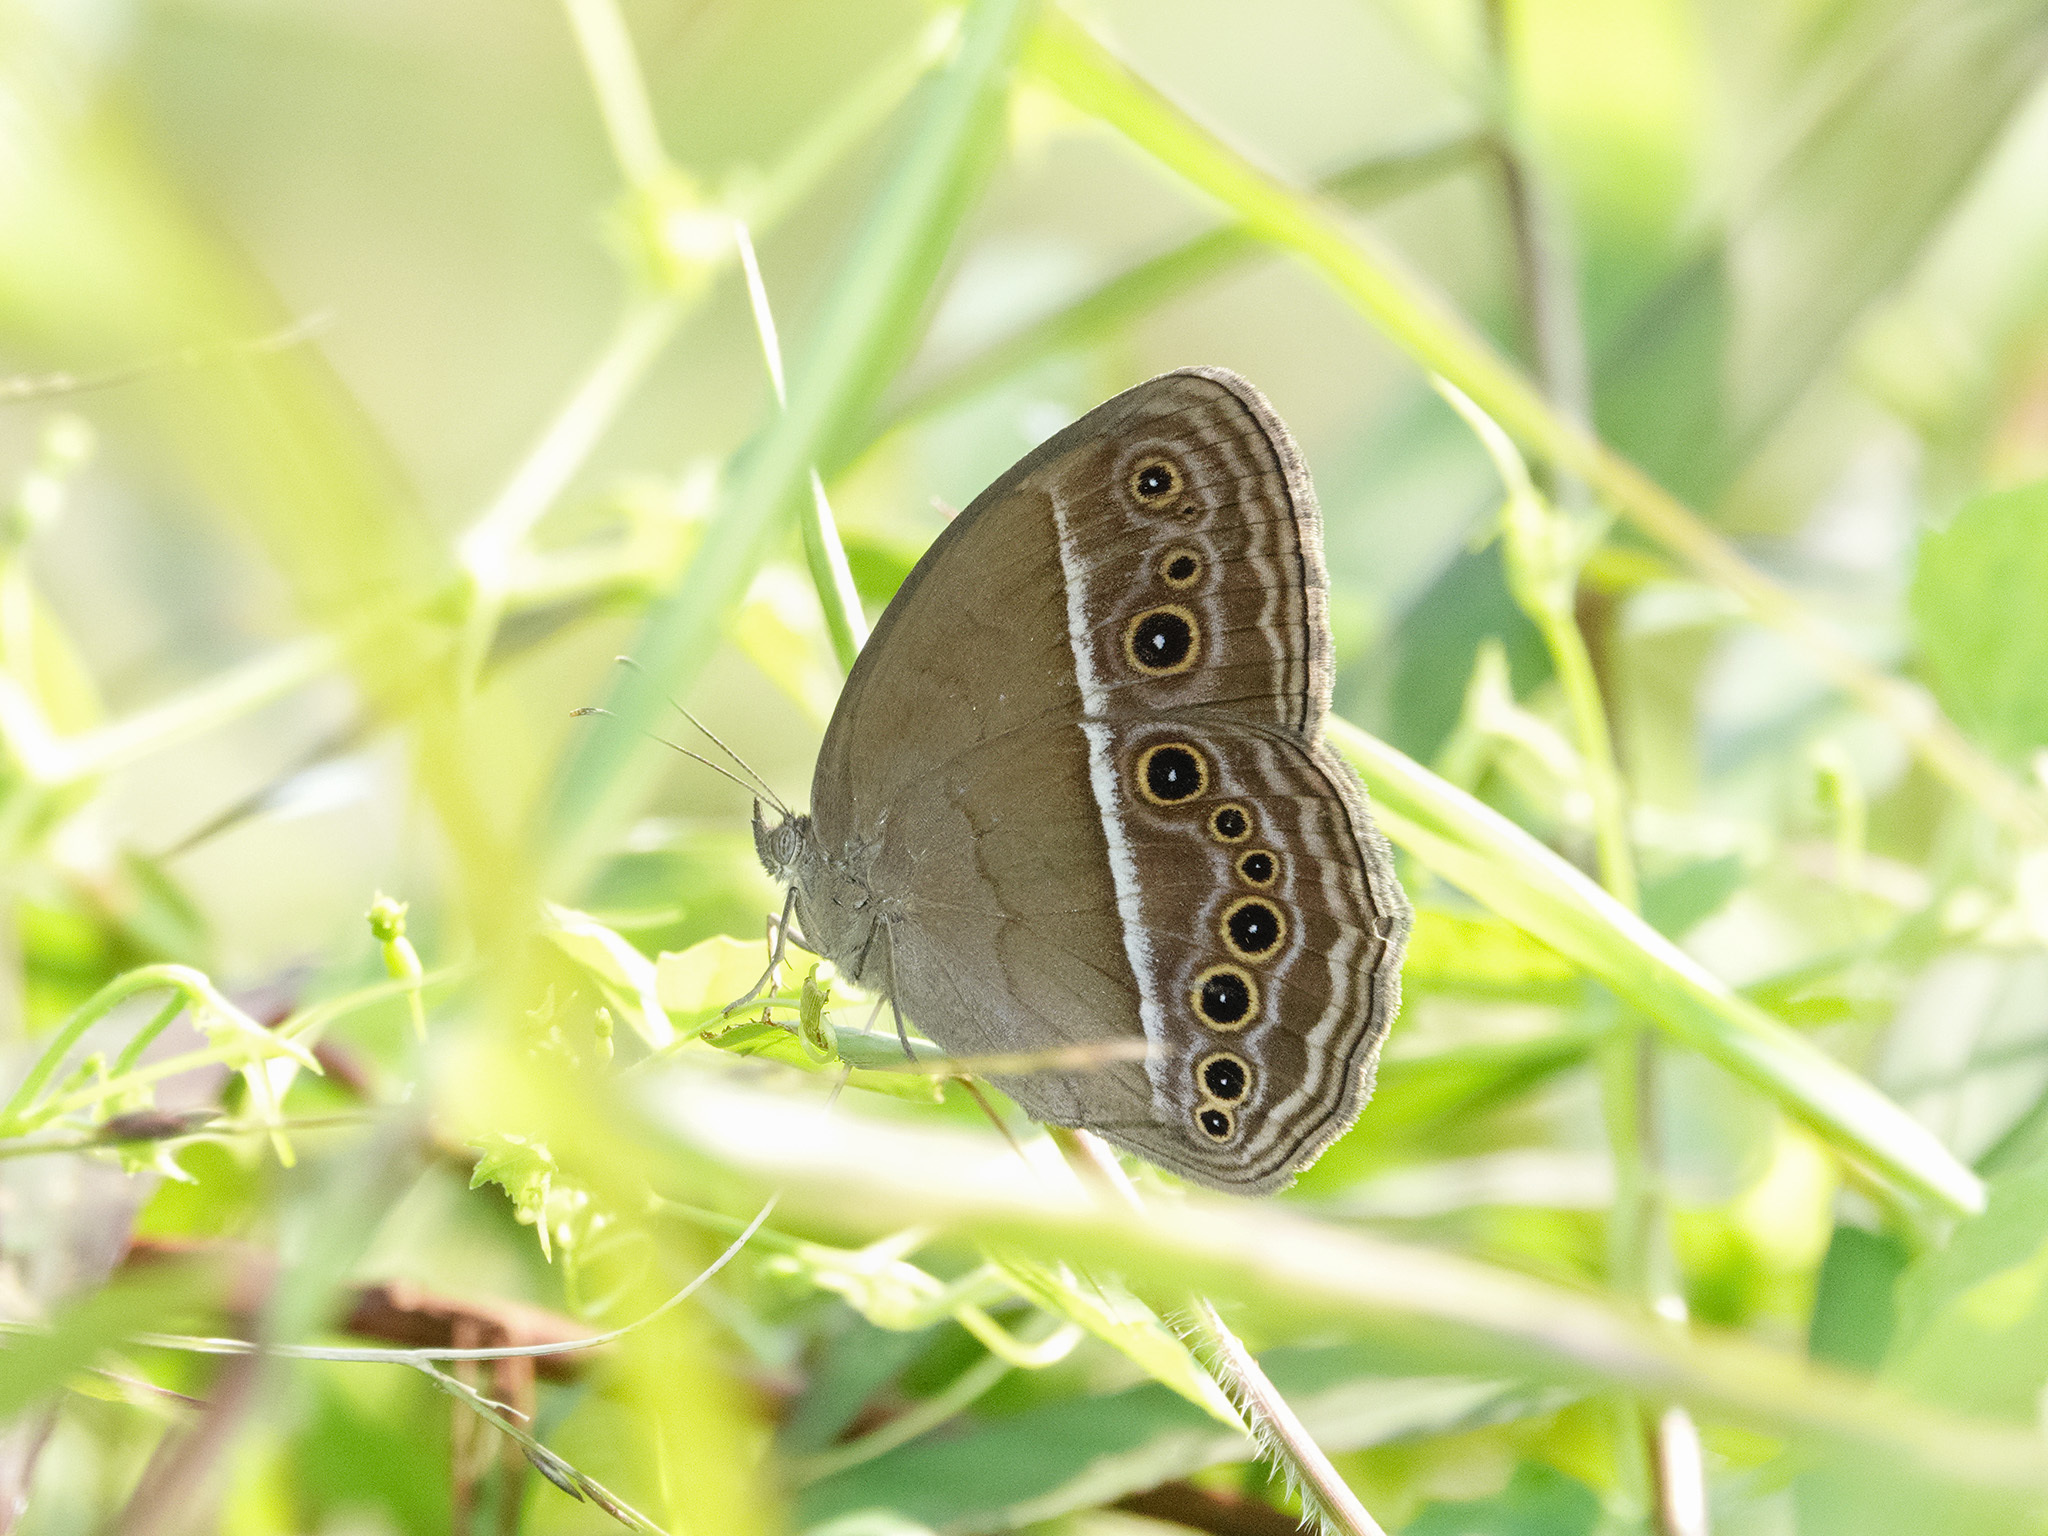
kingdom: Animalia
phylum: Arthropoda
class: Insecta
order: Lepidoptera
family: Nymphalidae
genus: Mycalesis
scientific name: Mycalesis perseoides
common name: Burmese bushbrown
